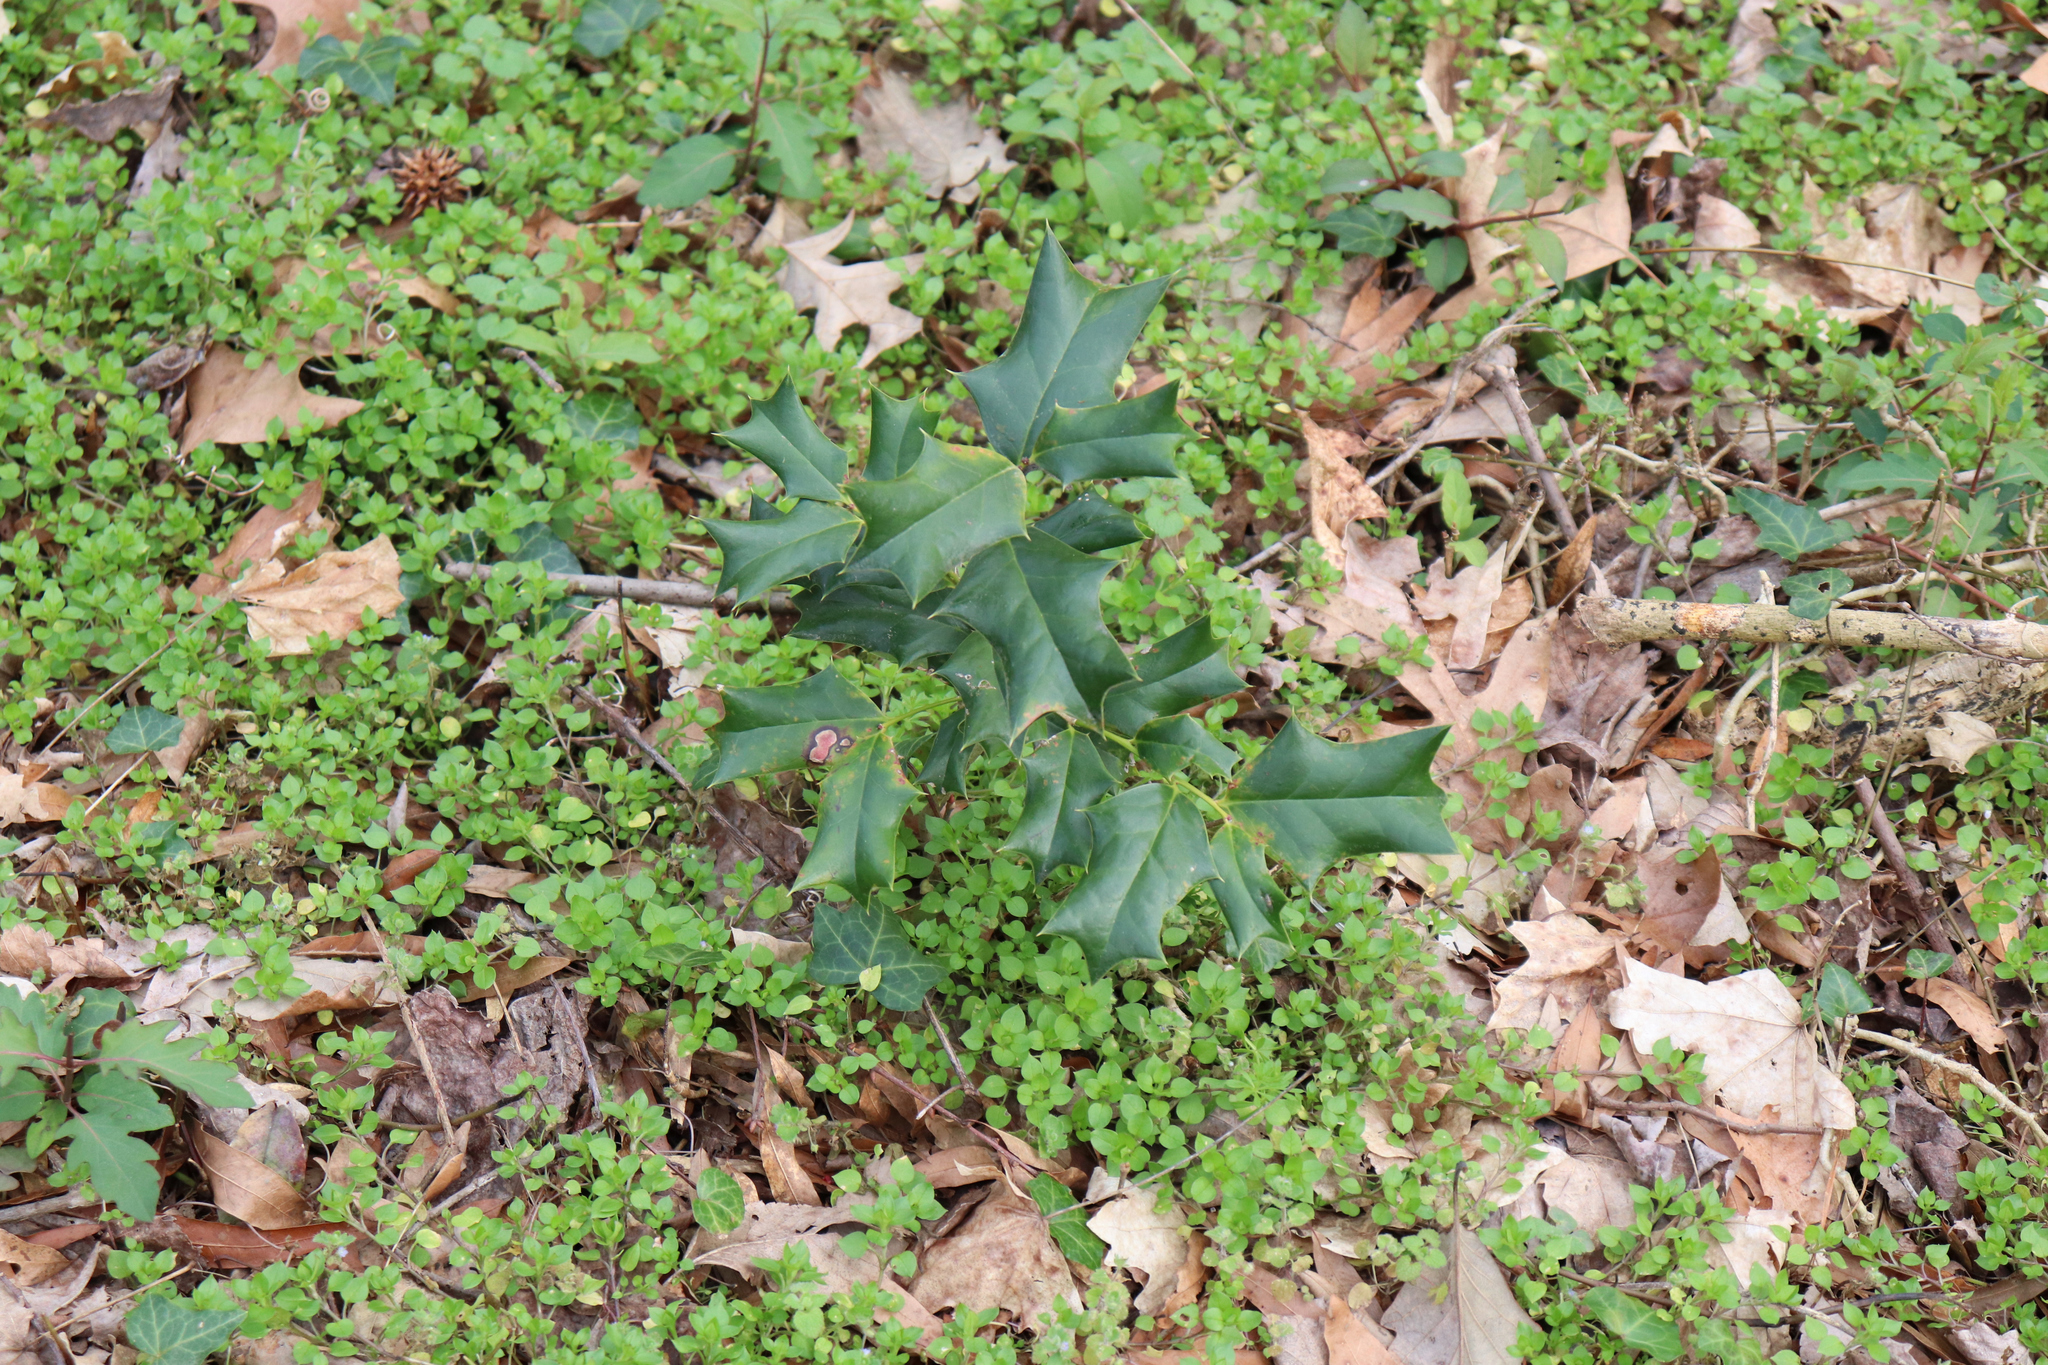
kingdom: Plantae
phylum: Tracheophyta
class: Magnoliopsida
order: Aquifoliales
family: Aquifoliaceae
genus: Ilex
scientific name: Ilex cornuta
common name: Chinese holly
